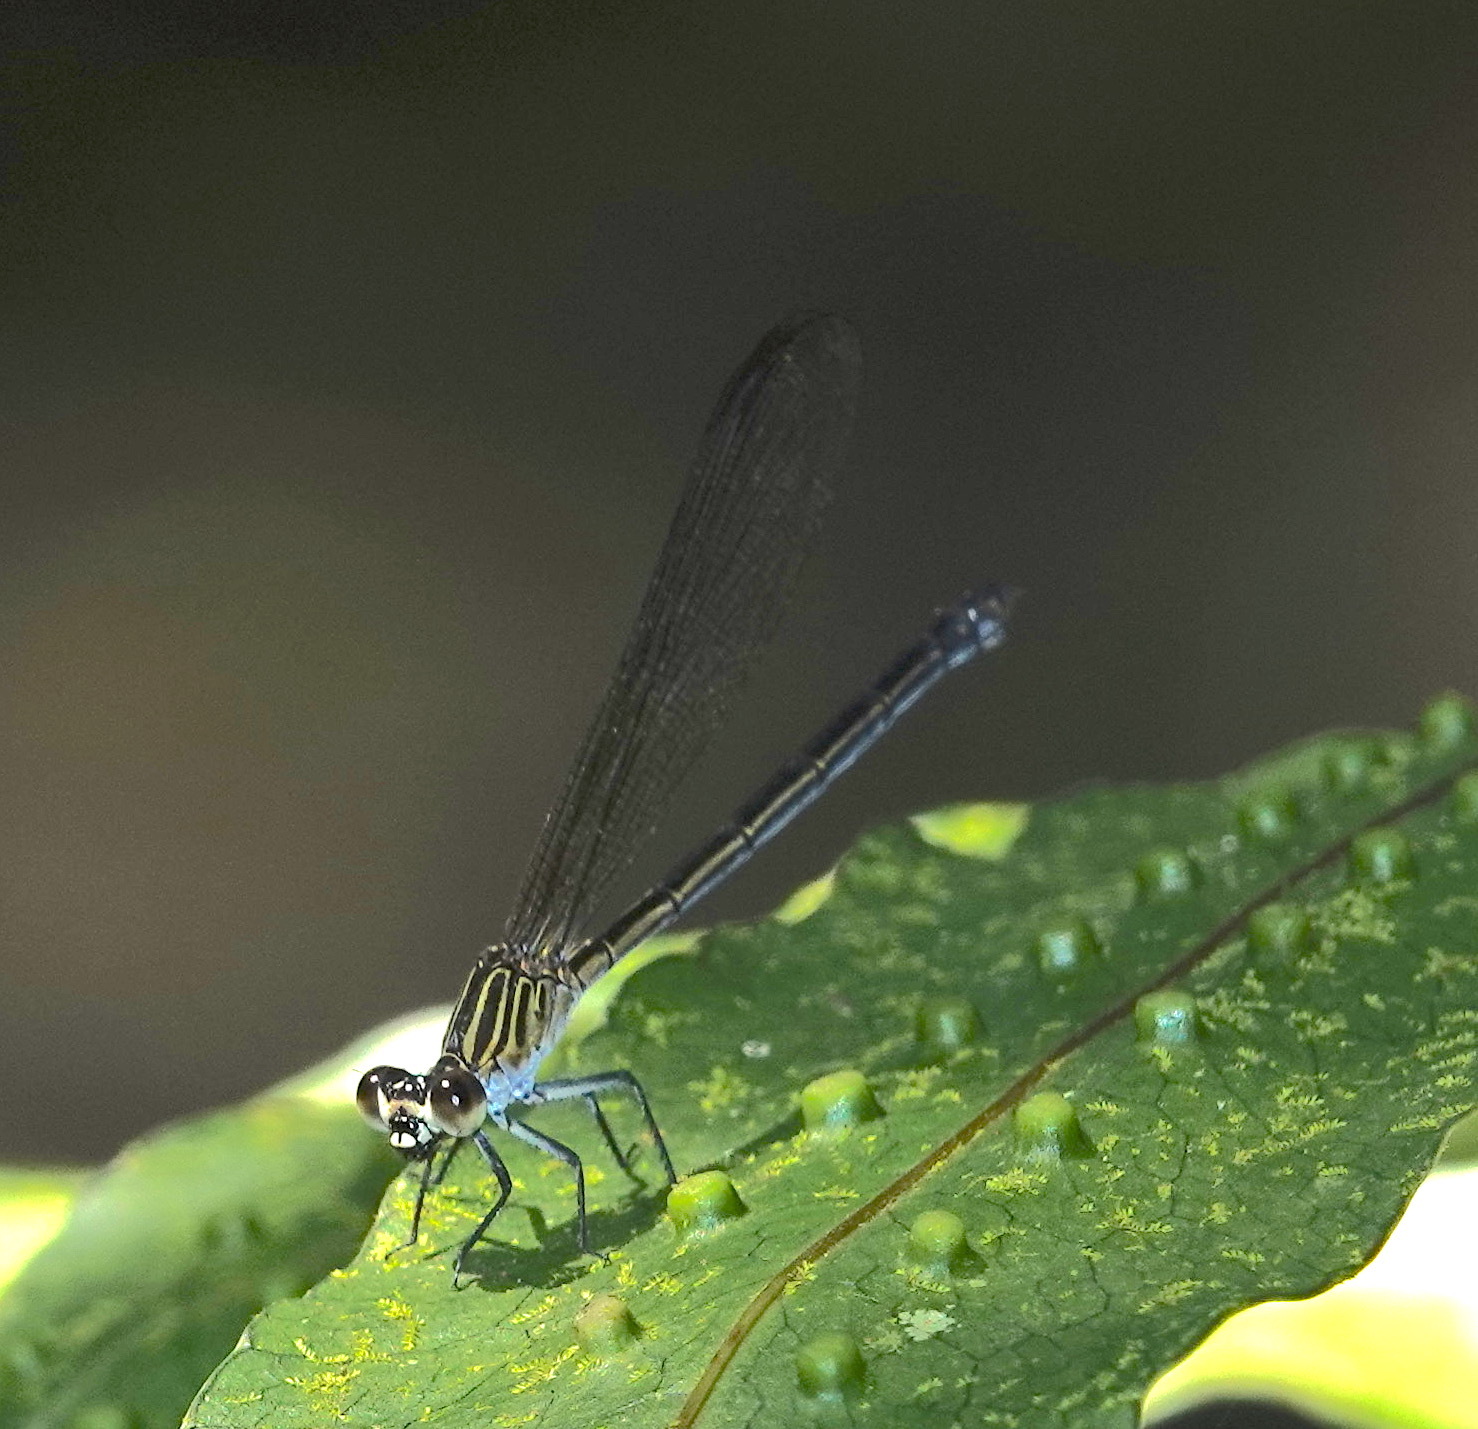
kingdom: Animalia
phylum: Arthropoda
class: Insecta
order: Odonata
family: Euphaeidae
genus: Euphaea
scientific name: Euphaea ochracea
